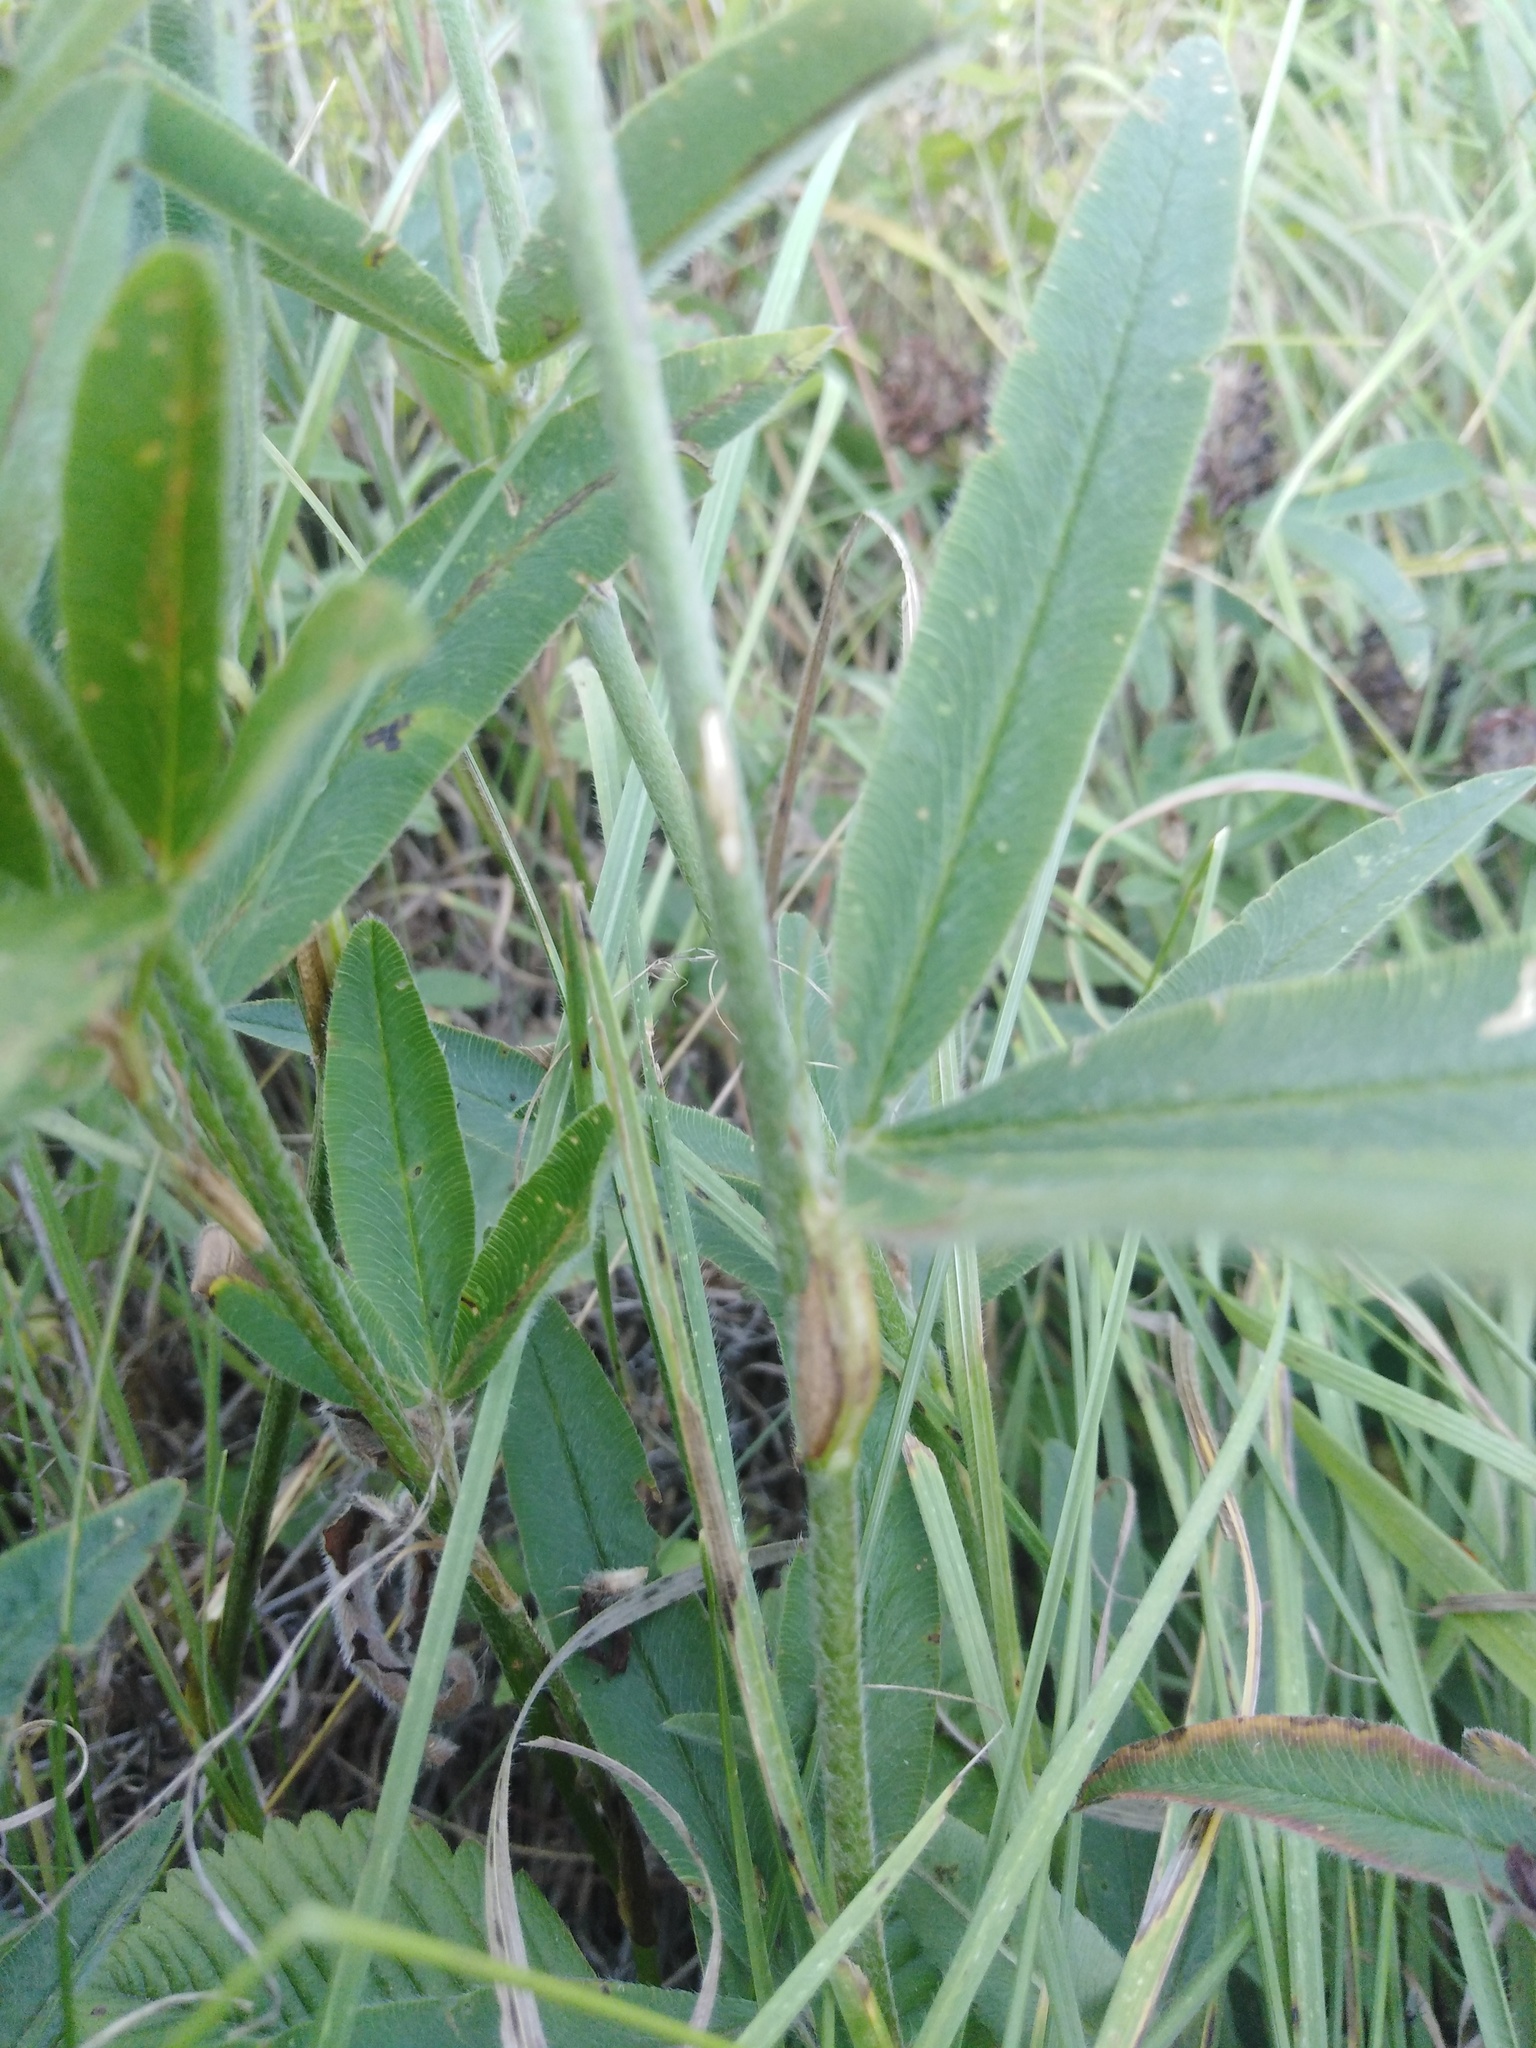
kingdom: Plantae
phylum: Tracheophyta
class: Magnoliopsida
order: Fabales
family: Fabaceae
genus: Trifolium
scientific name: Trifolium alpestre
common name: Owl-head clover
